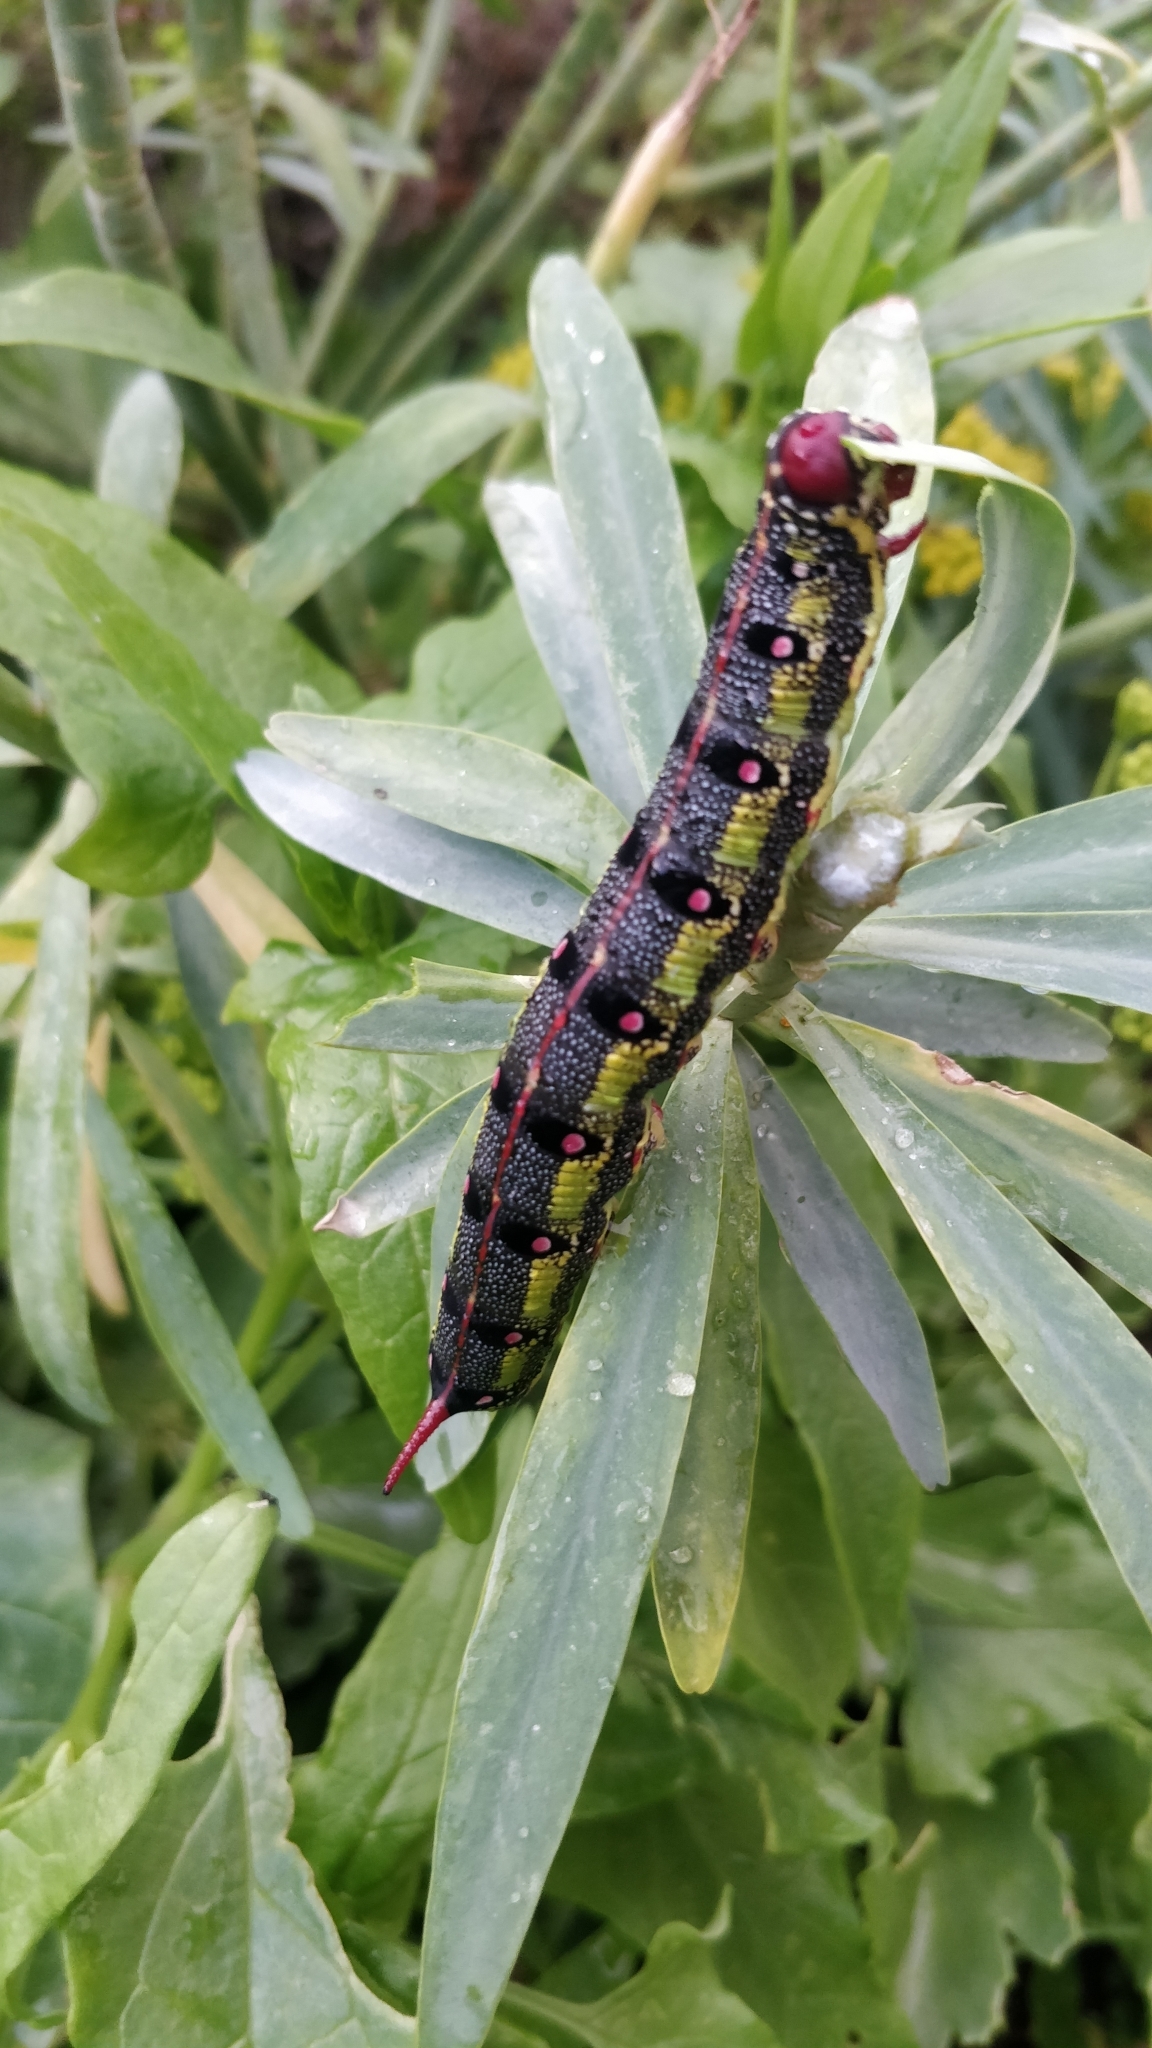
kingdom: Animalia
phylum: Arthropoda
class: Insecta
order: Lepidoptera
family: Sphingidae
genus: Hyles
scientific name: Hyles tithymali
